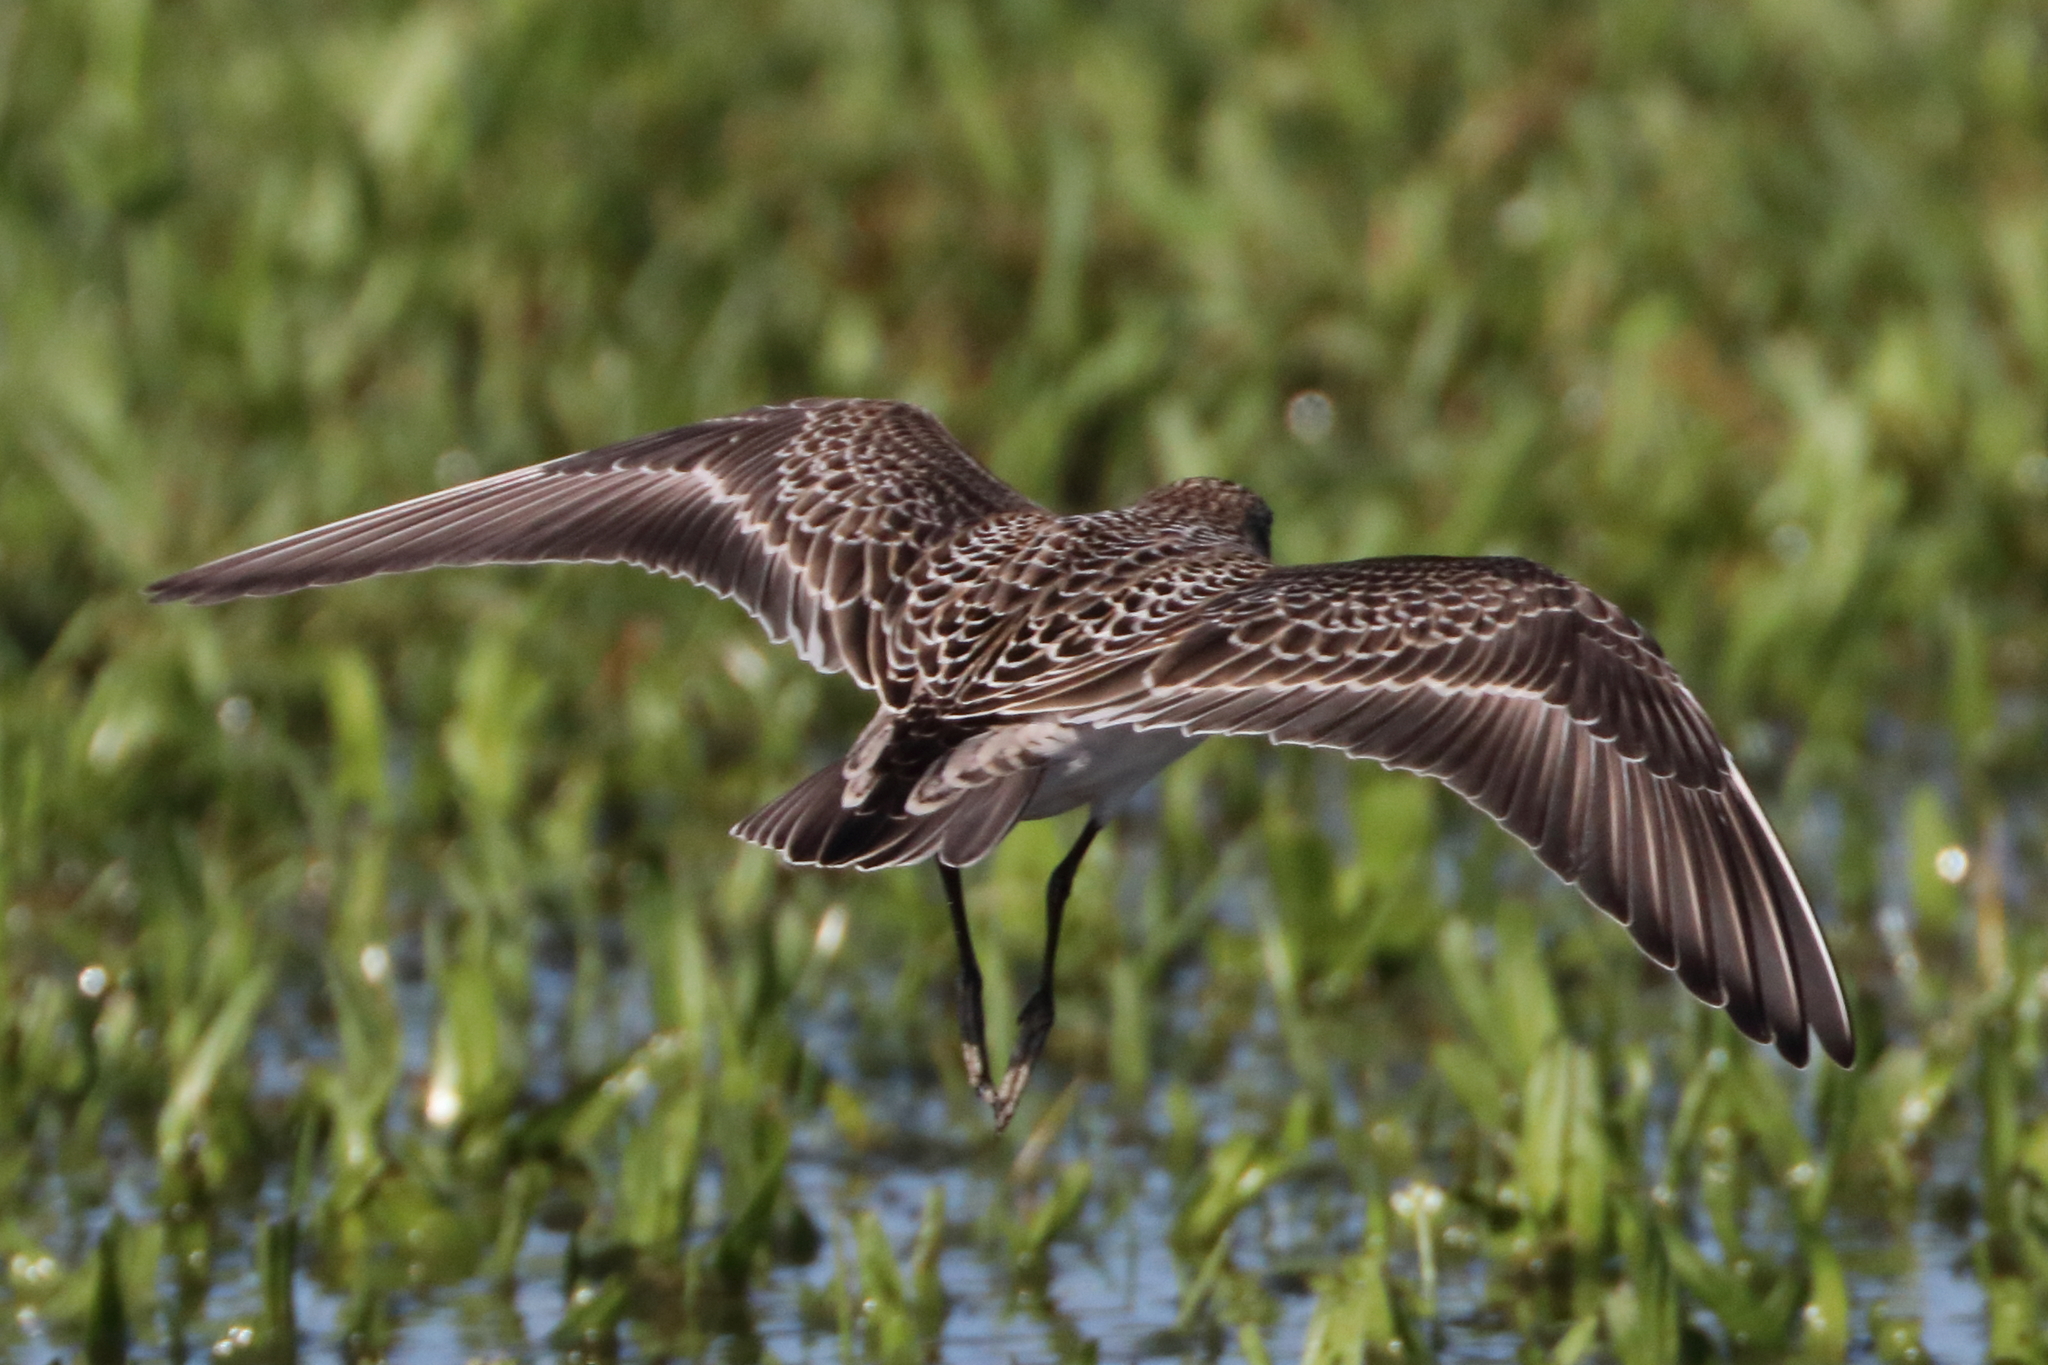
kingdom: Animalia
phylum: Chordata
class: Aves
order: Charadriiformes
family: Scolopacidae
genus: Calidris
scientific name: Calidris bairdii
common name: Baird's sandpiper
